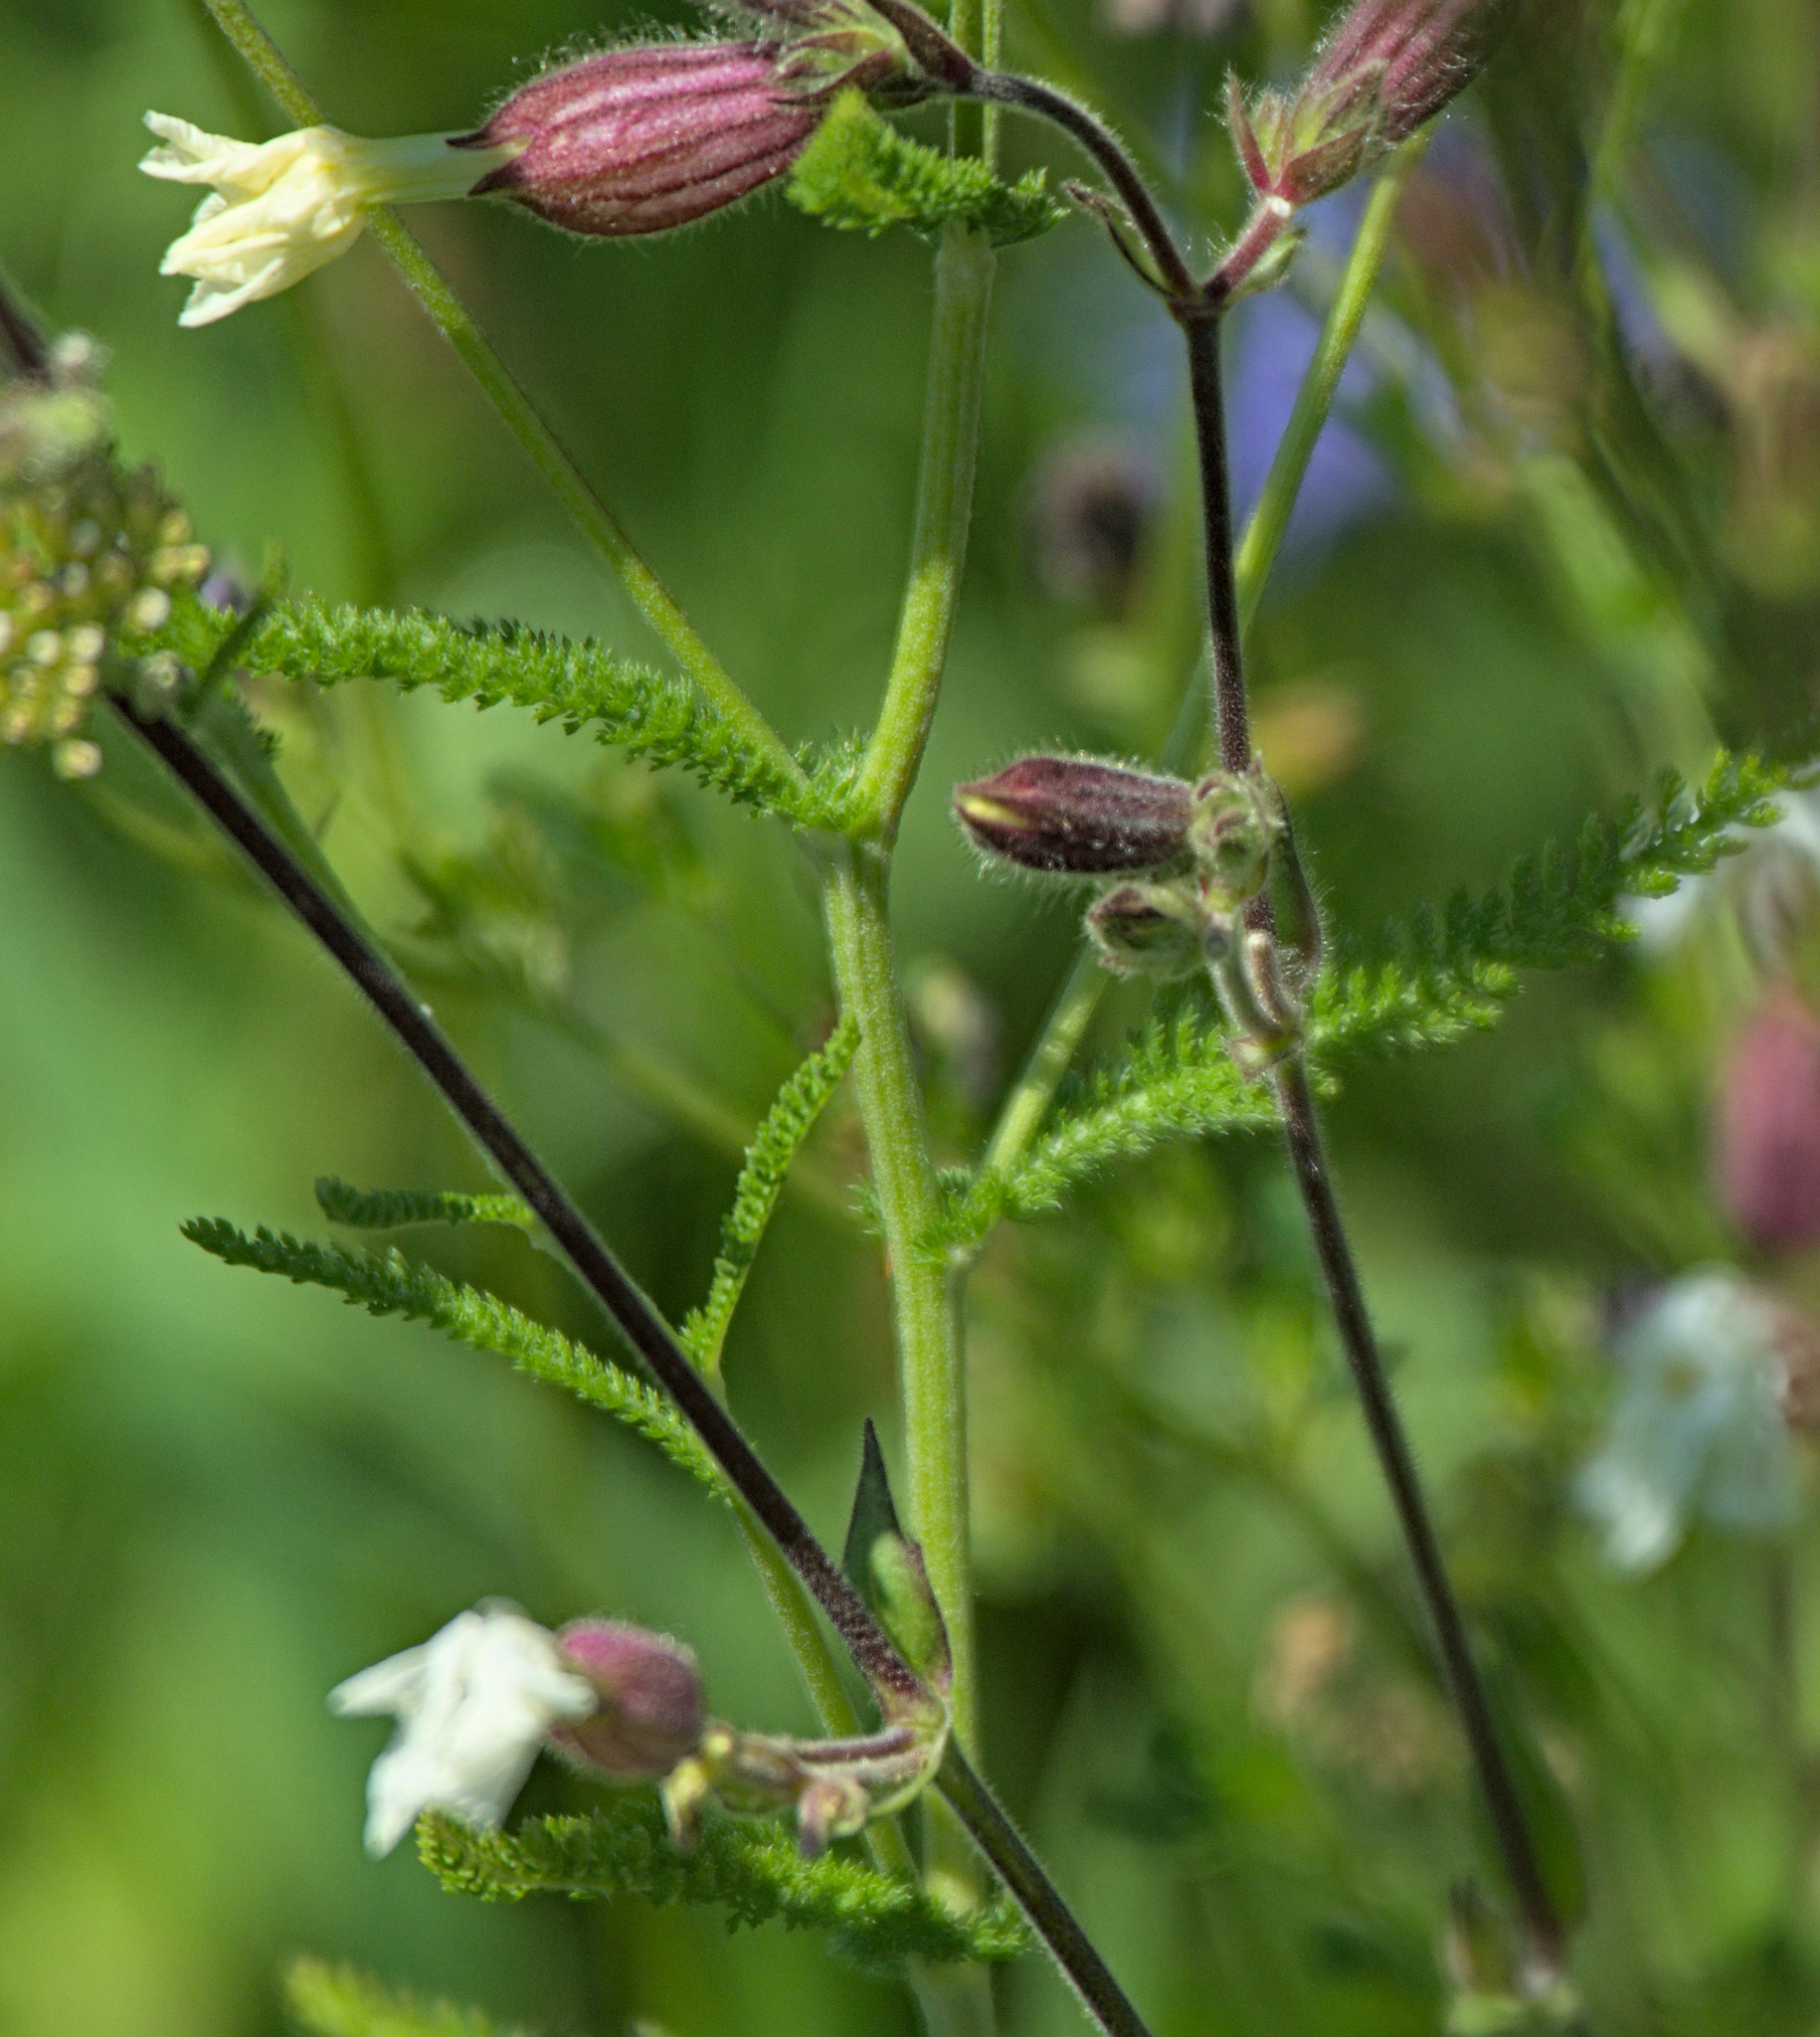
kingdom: Plantae
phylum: Tracheophyta
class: Magnoliopsida
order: Caryophyllales
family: Caryophyllaceae
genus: Silene
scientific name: Silene latifolia
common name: White campion
